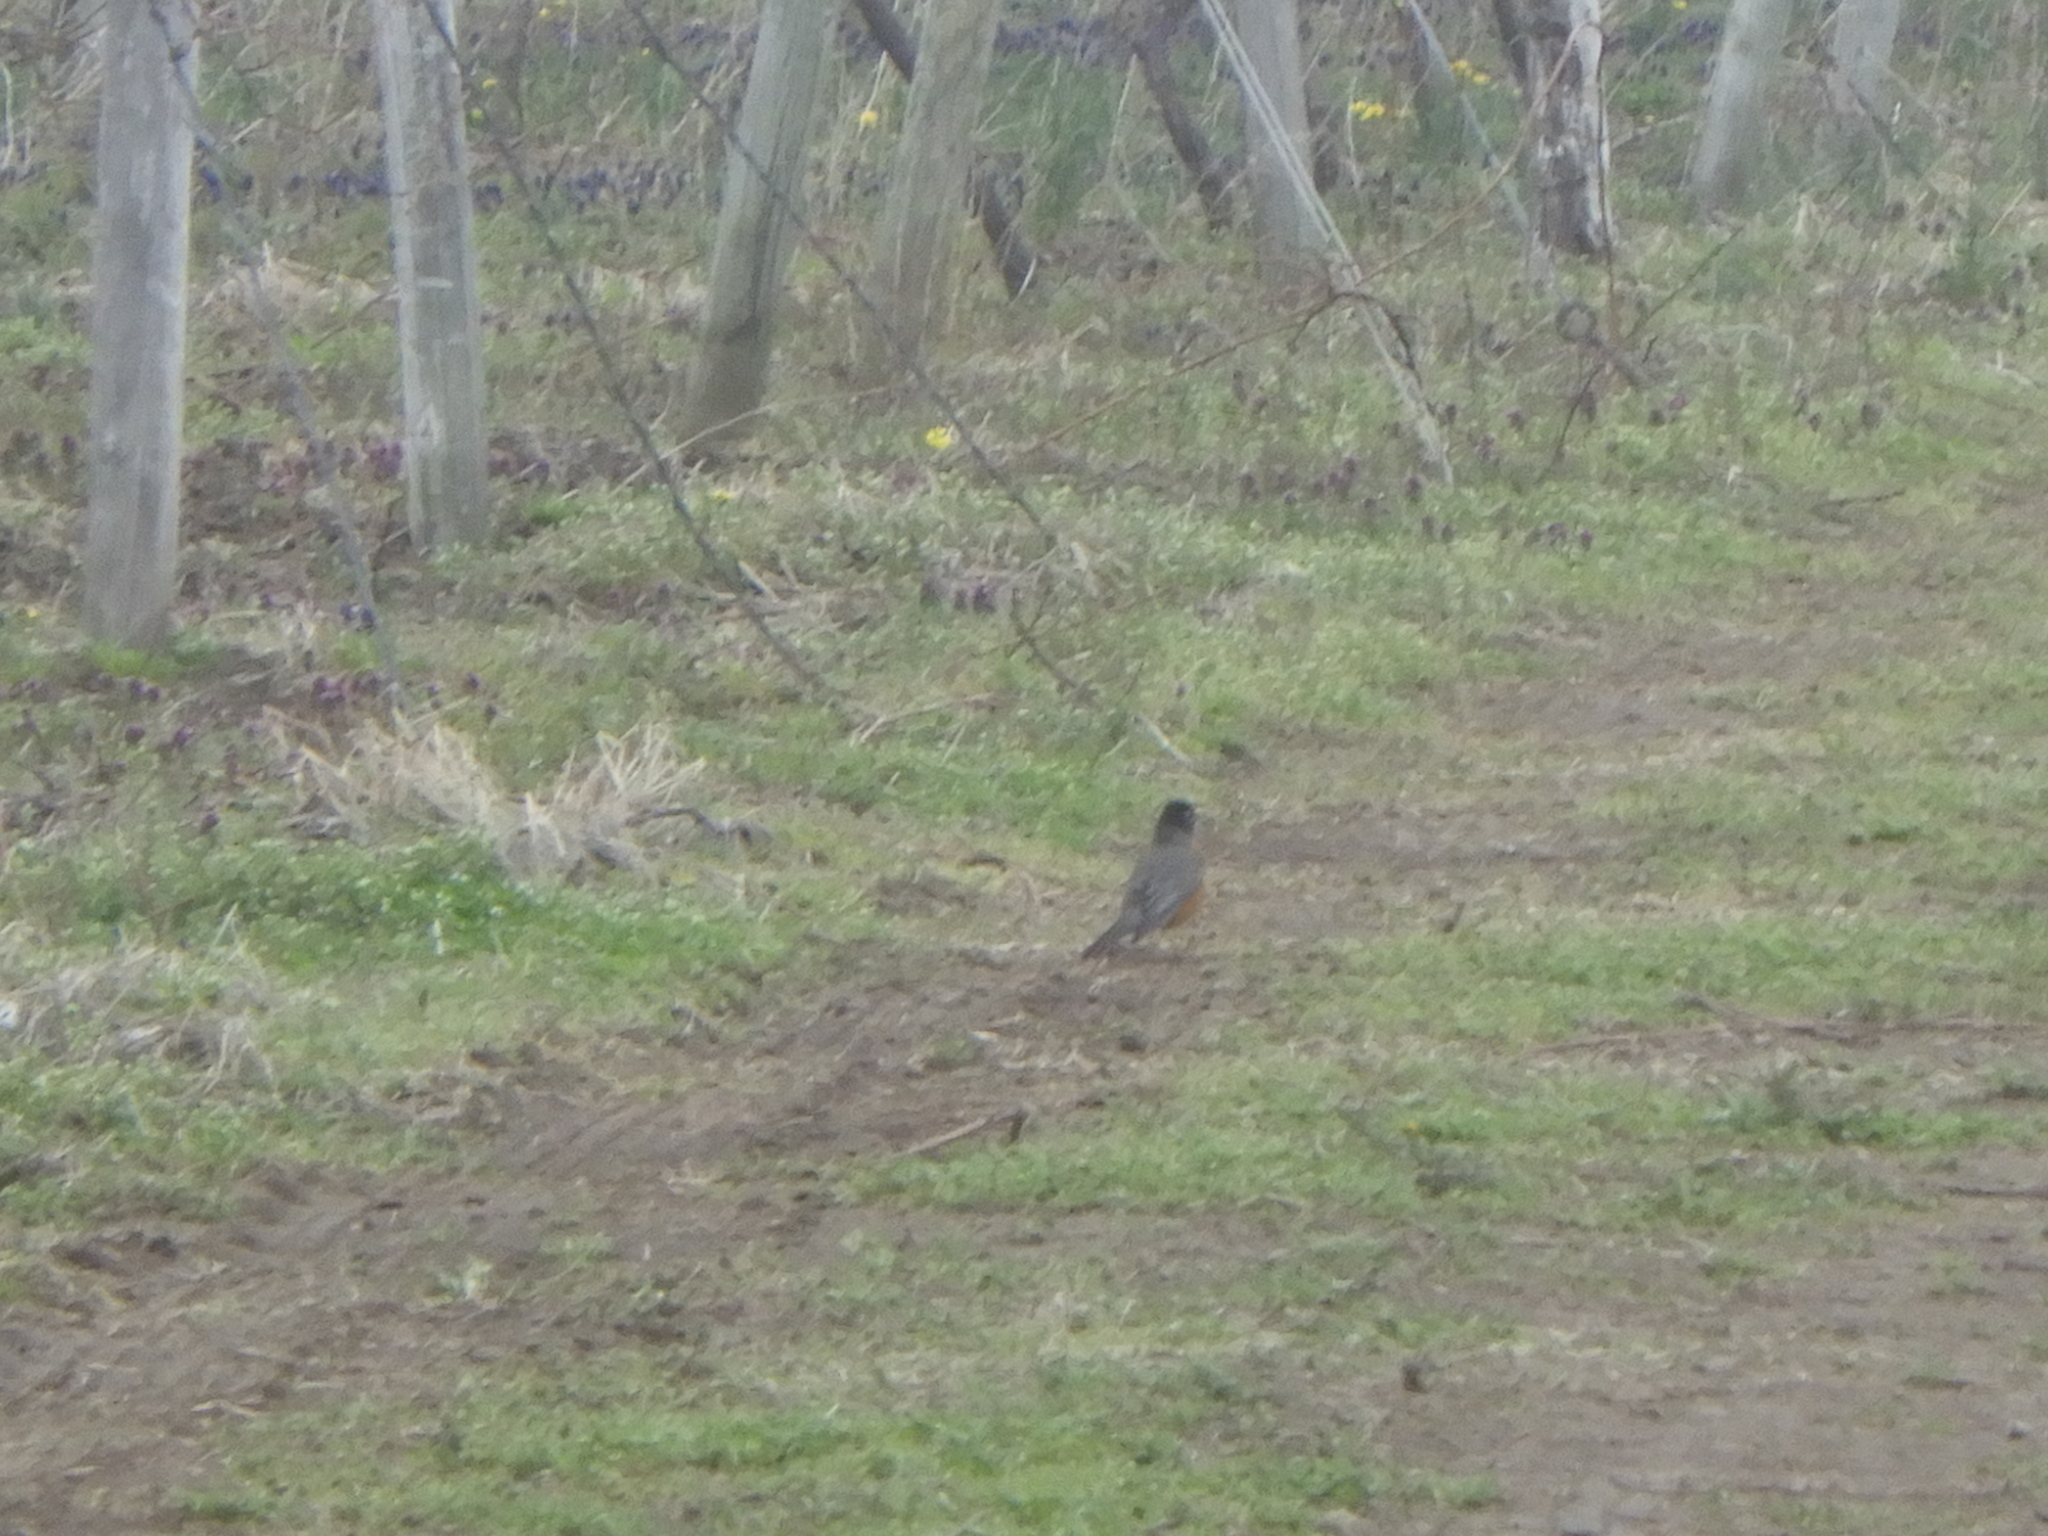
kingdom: Animalia
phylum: Chordata
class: Aves
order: Passeriformes
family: Turdidae
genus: Turdus
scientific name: Turdus migratorius
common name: American robin
